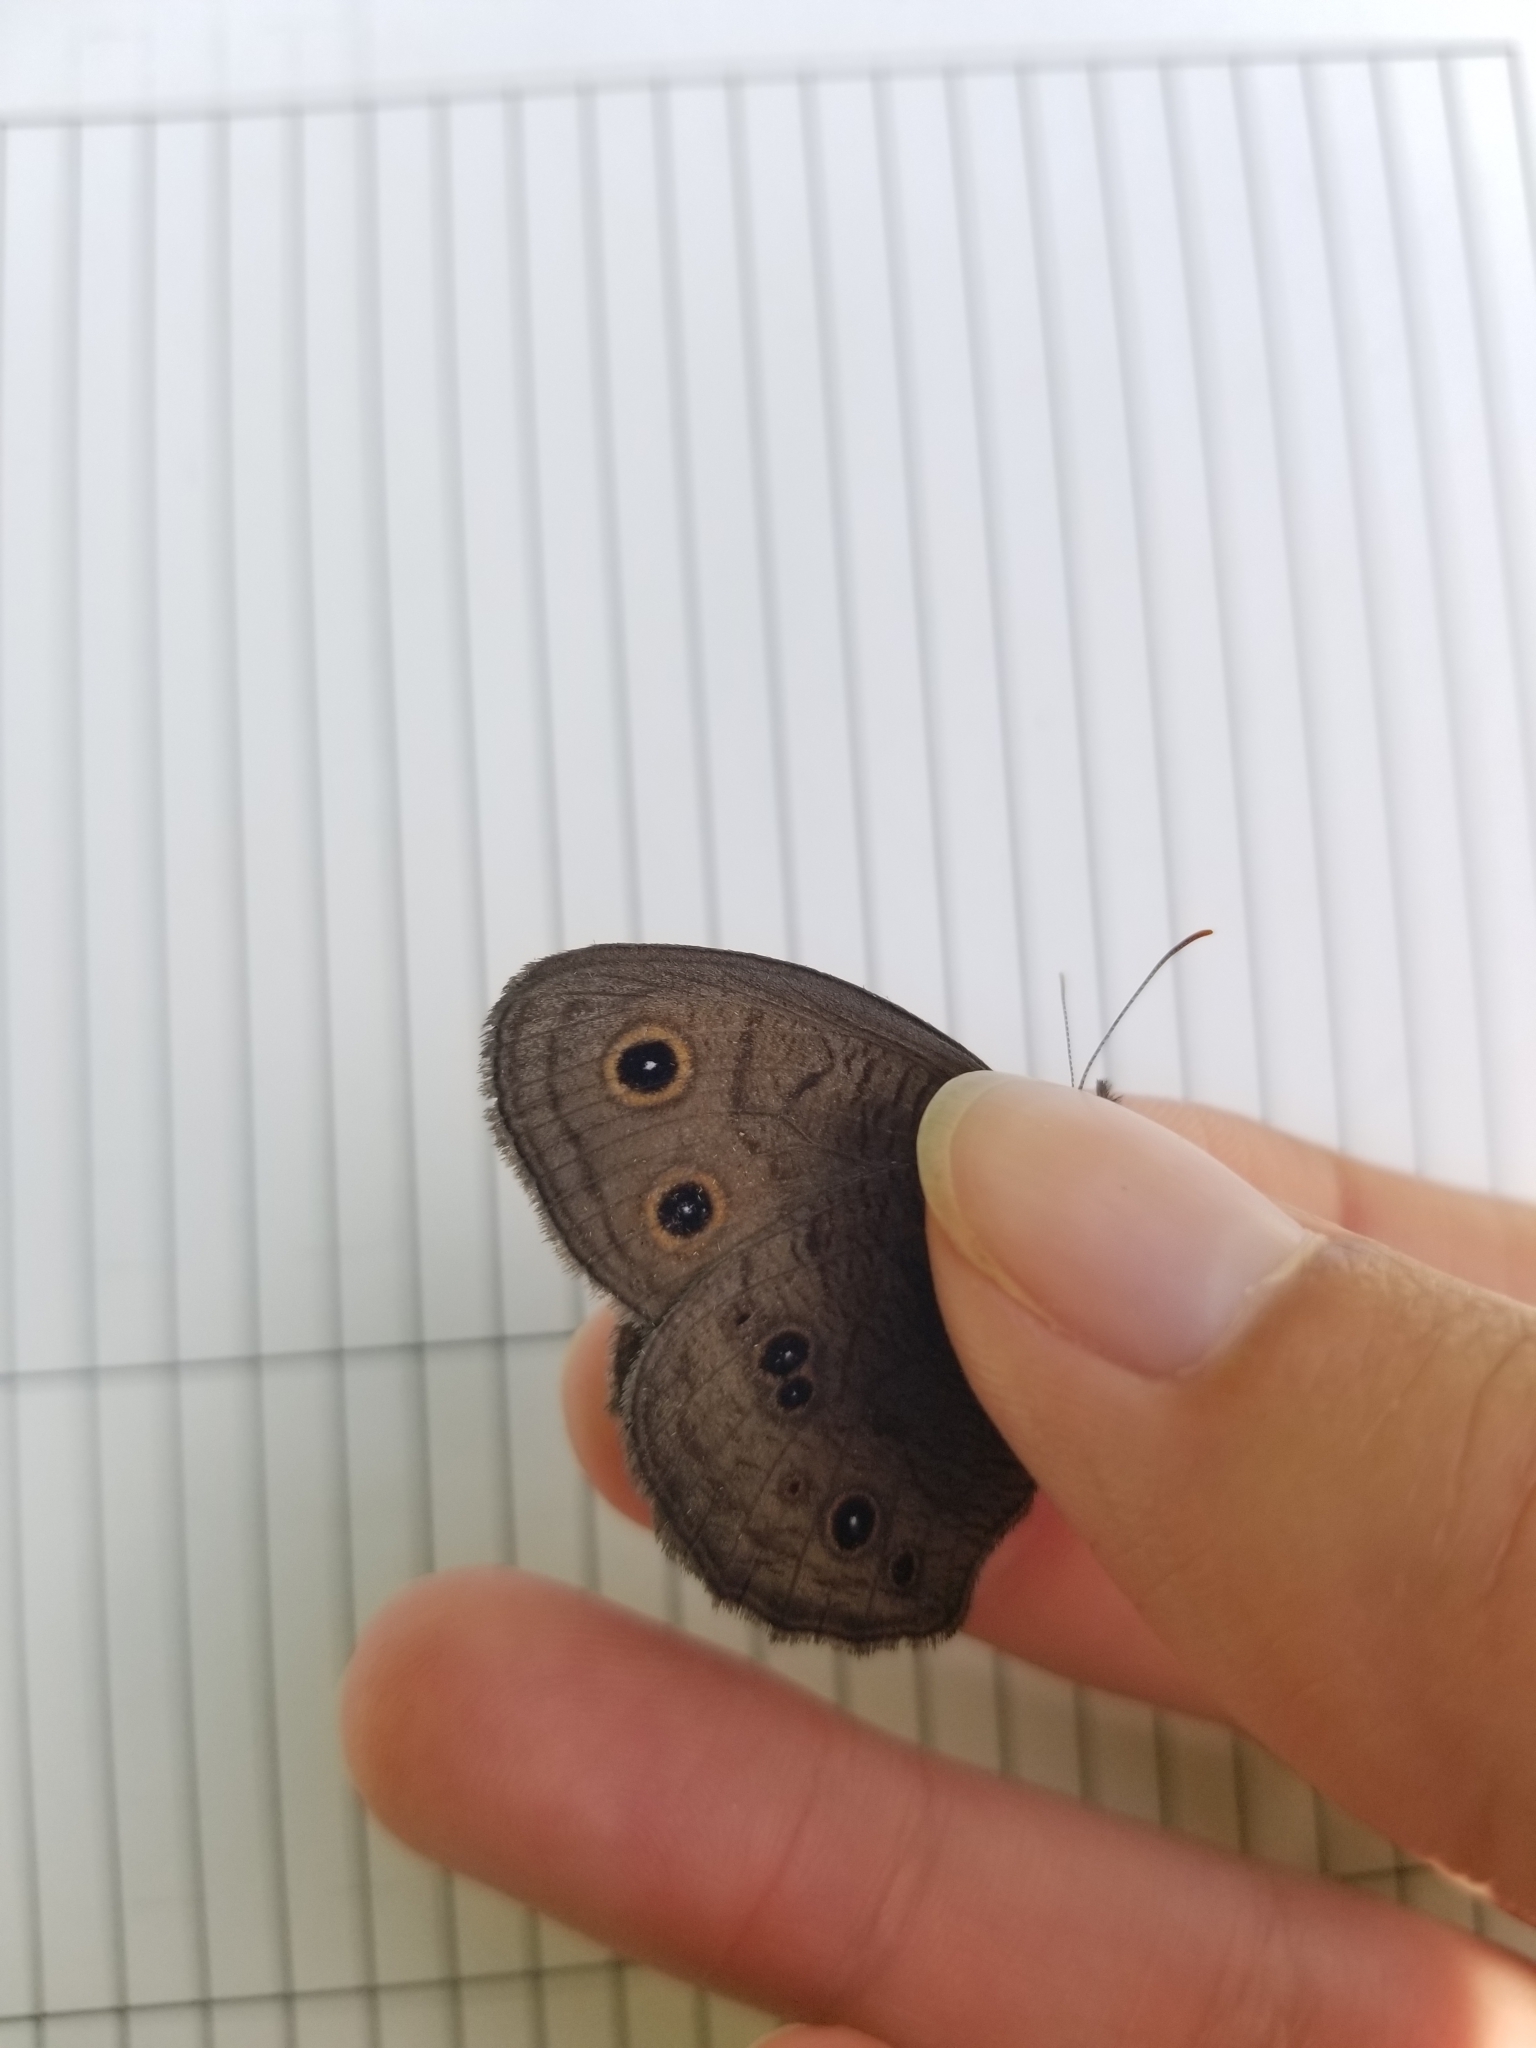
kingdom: Animalia
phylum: Arthropoda
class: Insecta
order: Lepidoptera
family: Nymphalidae
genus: Cercyonis
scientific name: Cercyonis pegala
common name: Common wood-nymph
